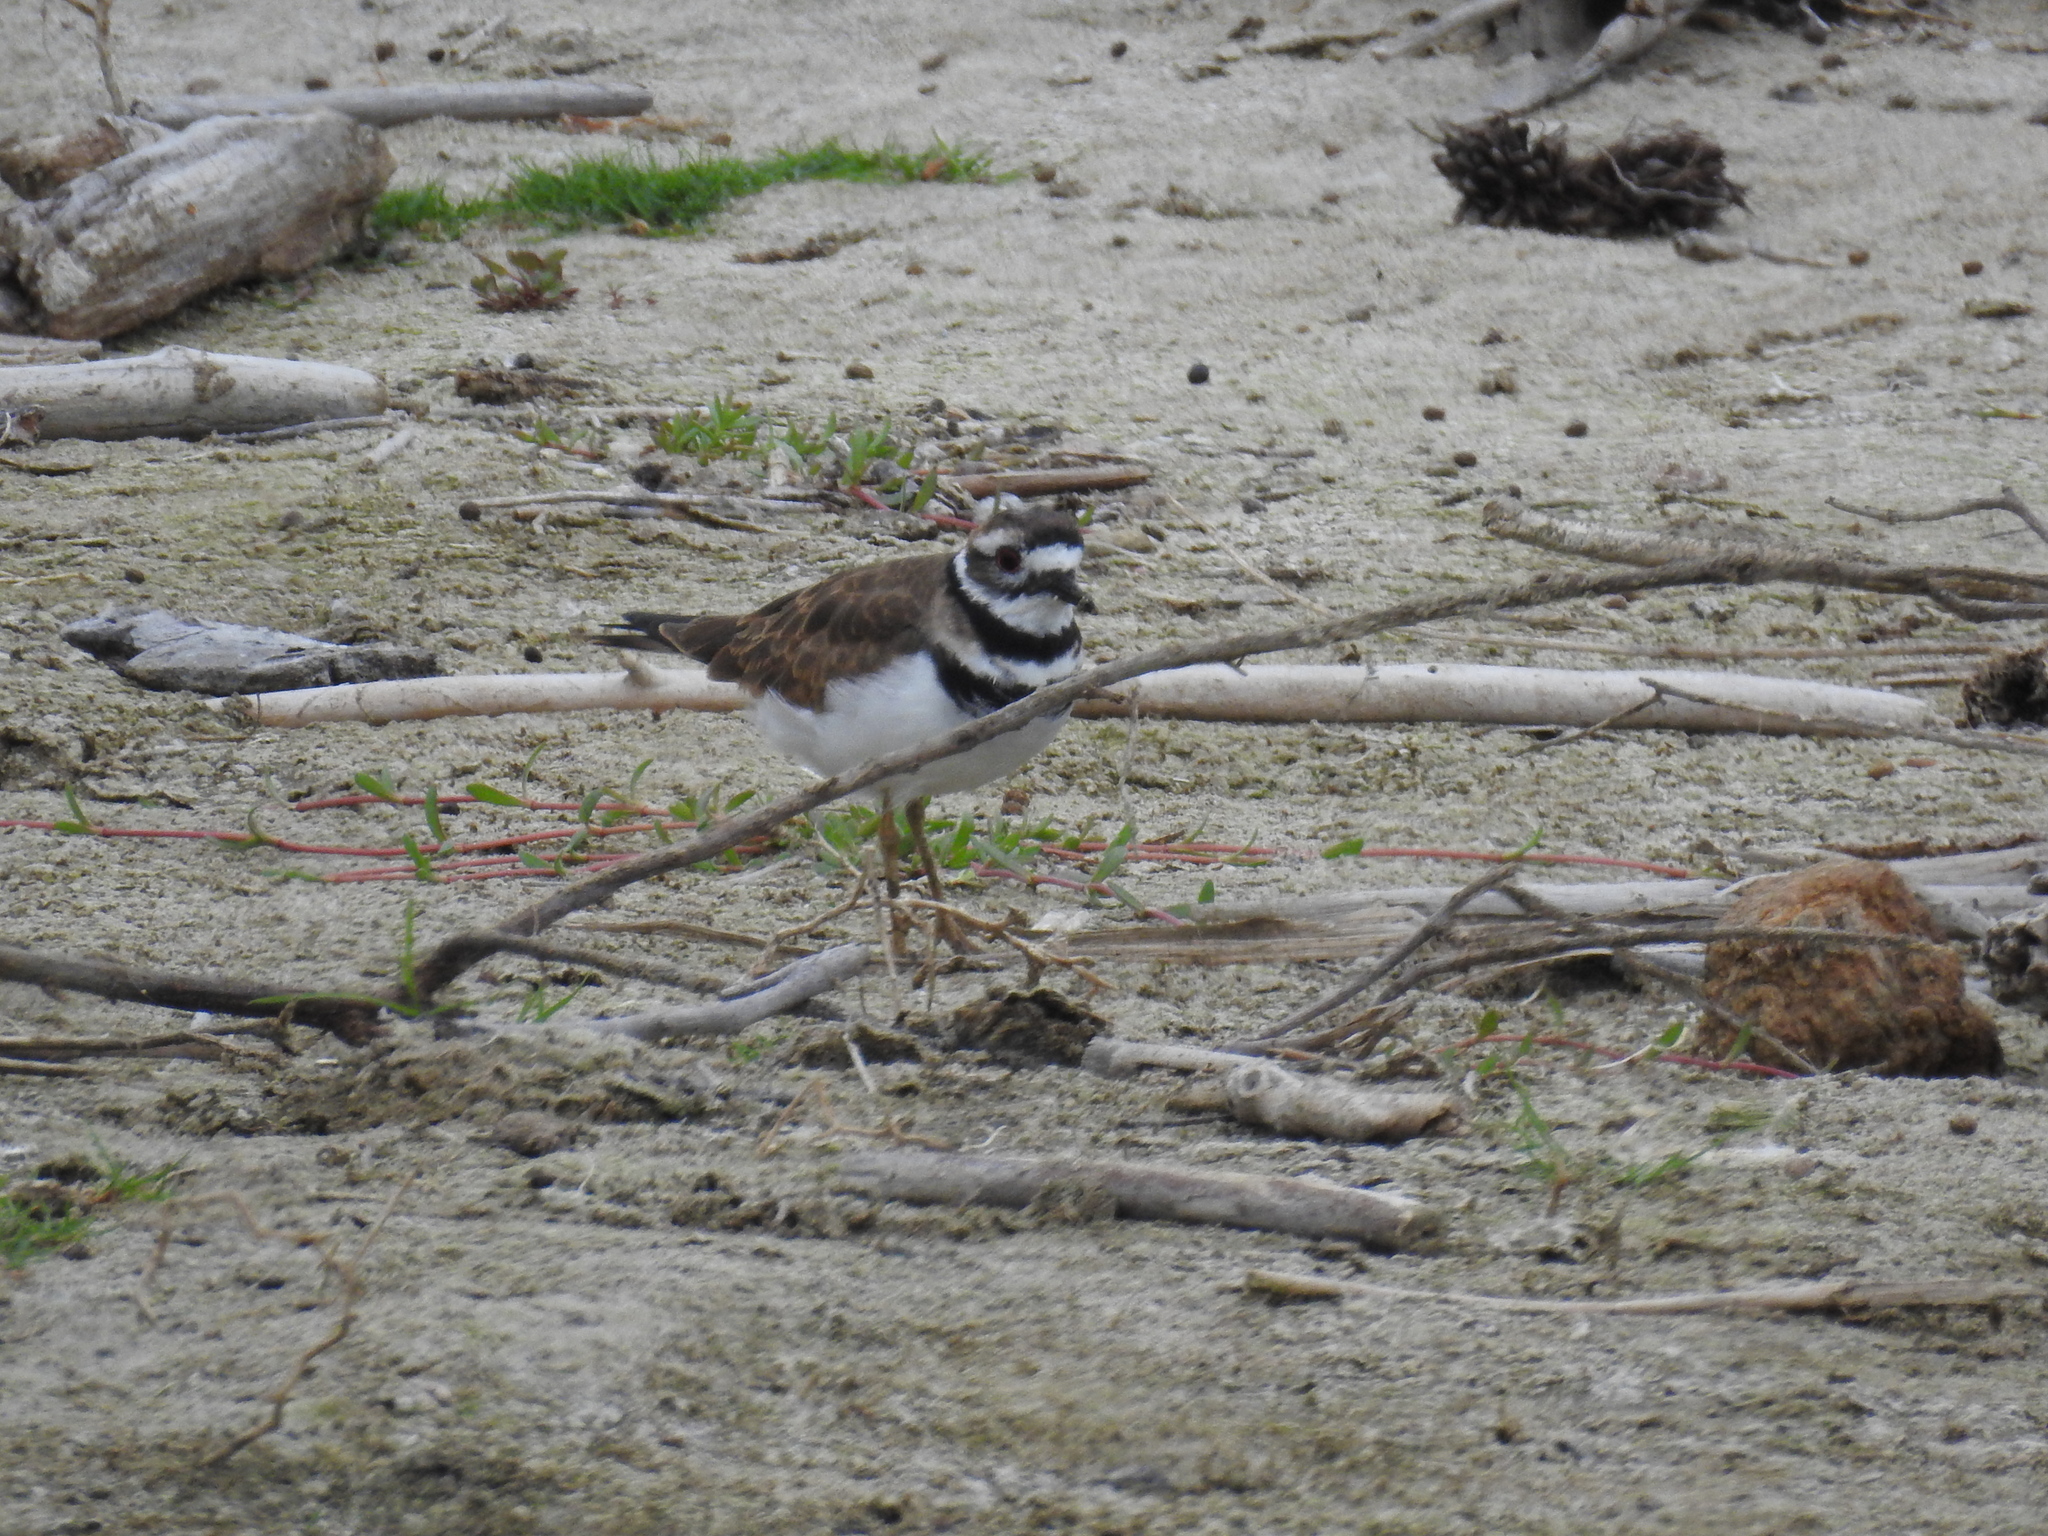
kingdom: Animalia
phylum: Chordata
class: Aves
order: Charadriiformes
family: Charadriidae
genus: Charadrius
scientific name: Charadrius vociferus
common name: Killdeer
